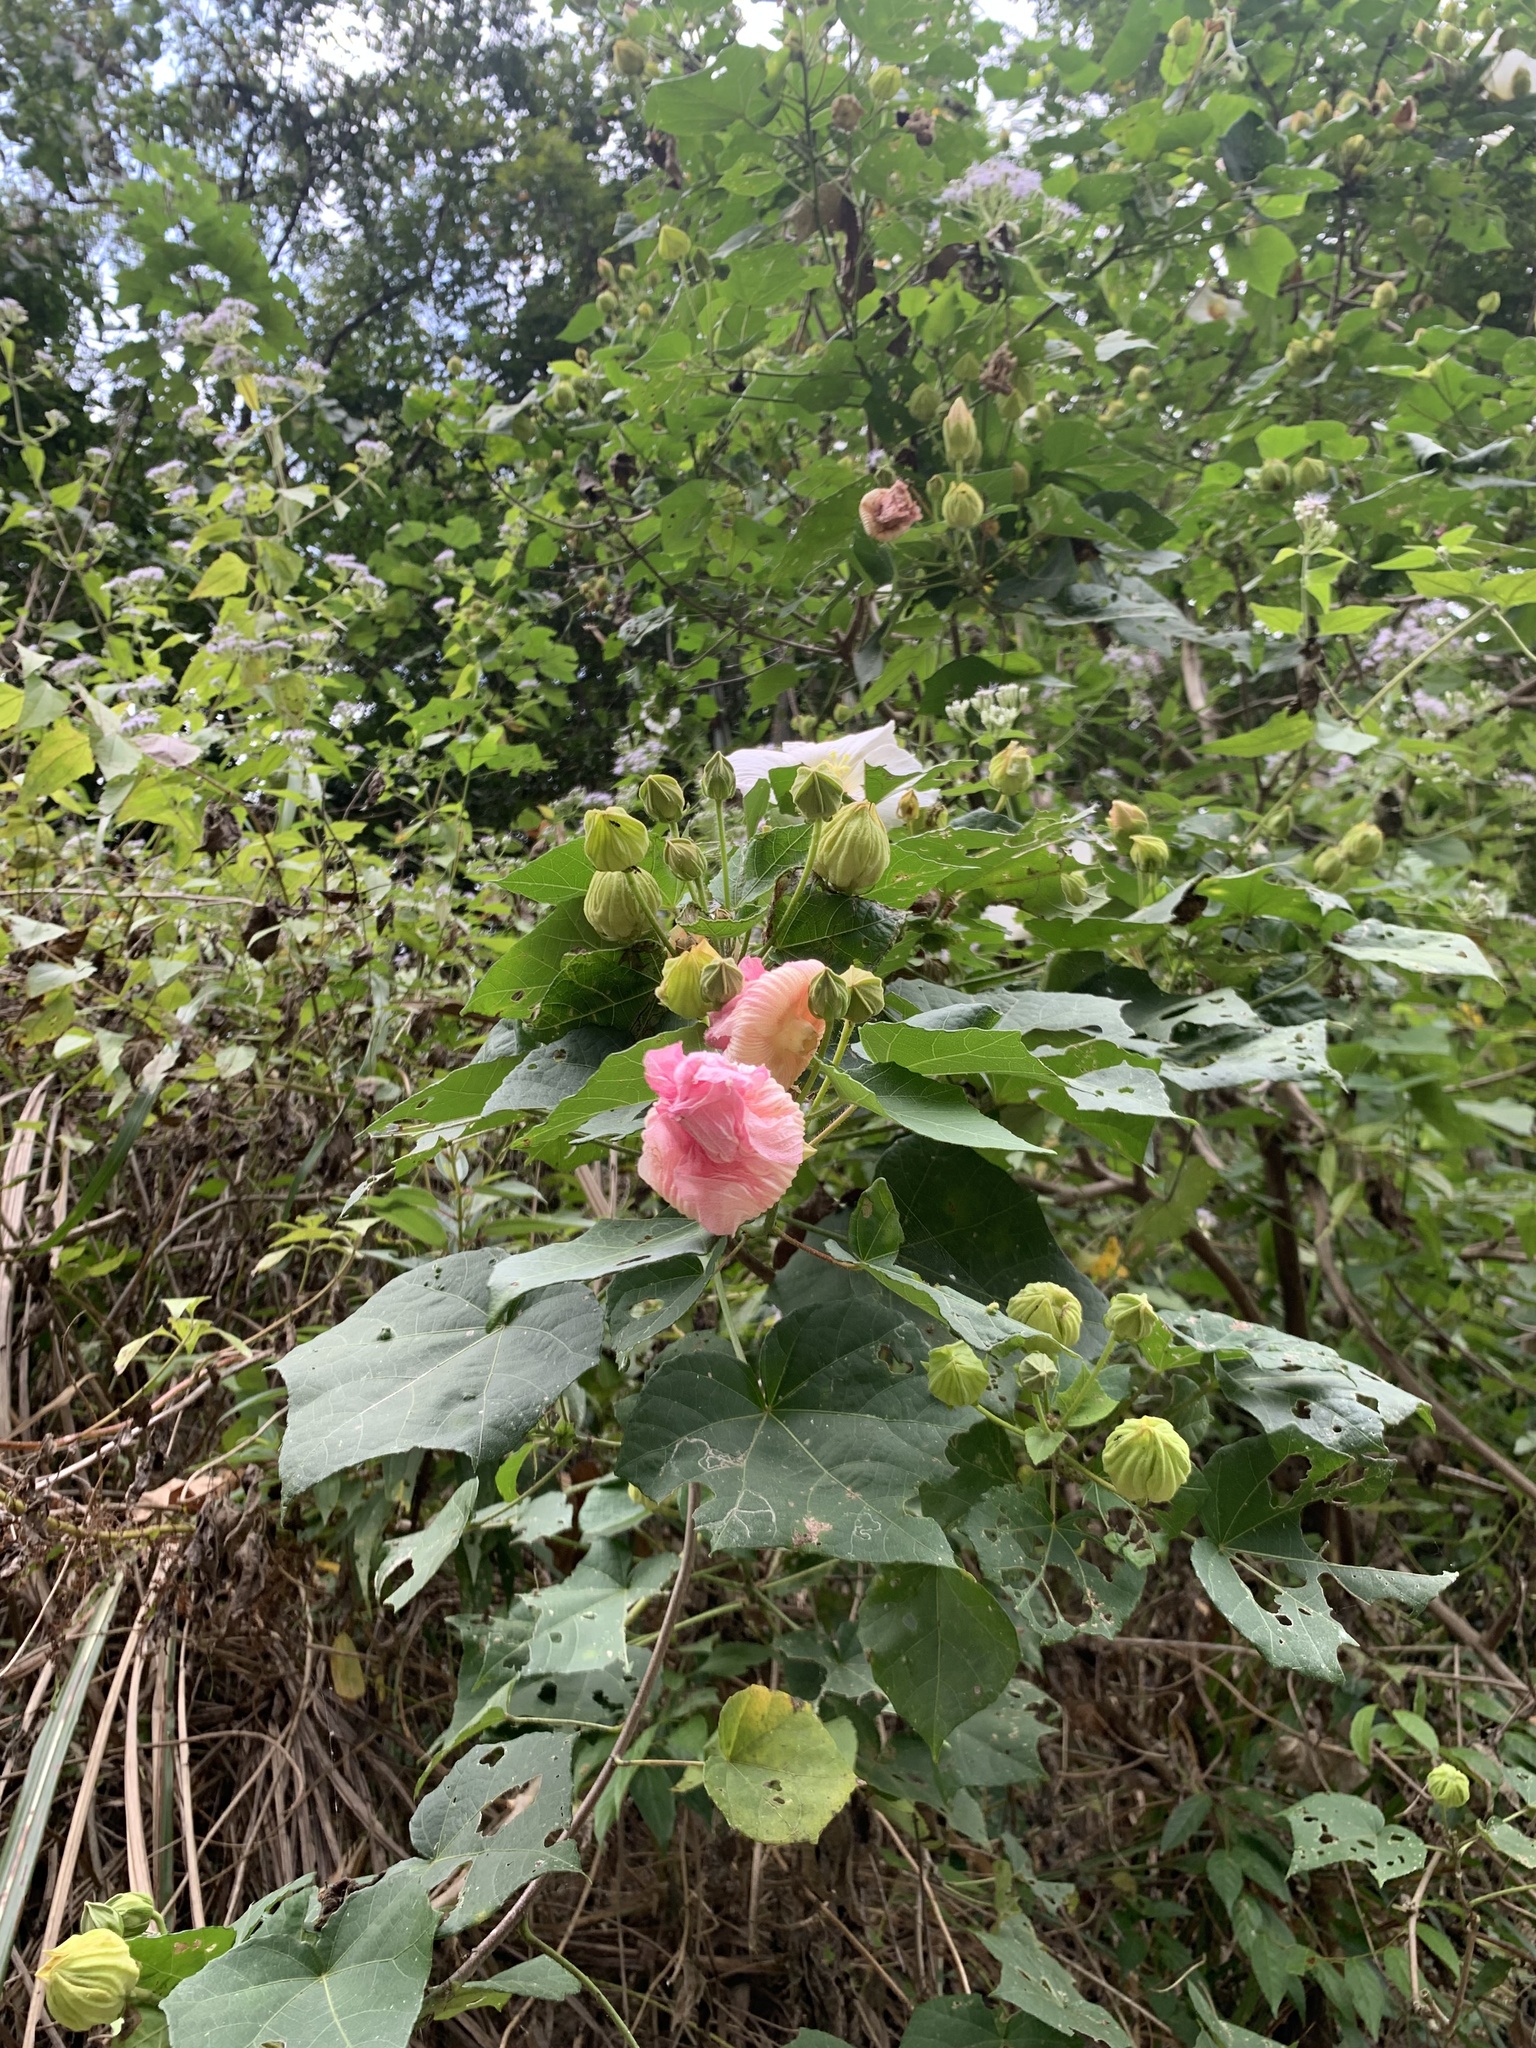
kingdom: Plantae
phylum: Tracheophyta
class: Magnoliopsida
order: Malvales
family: Malvaceae
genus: Hibiscus
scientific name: Hibiscus taiwanensis
